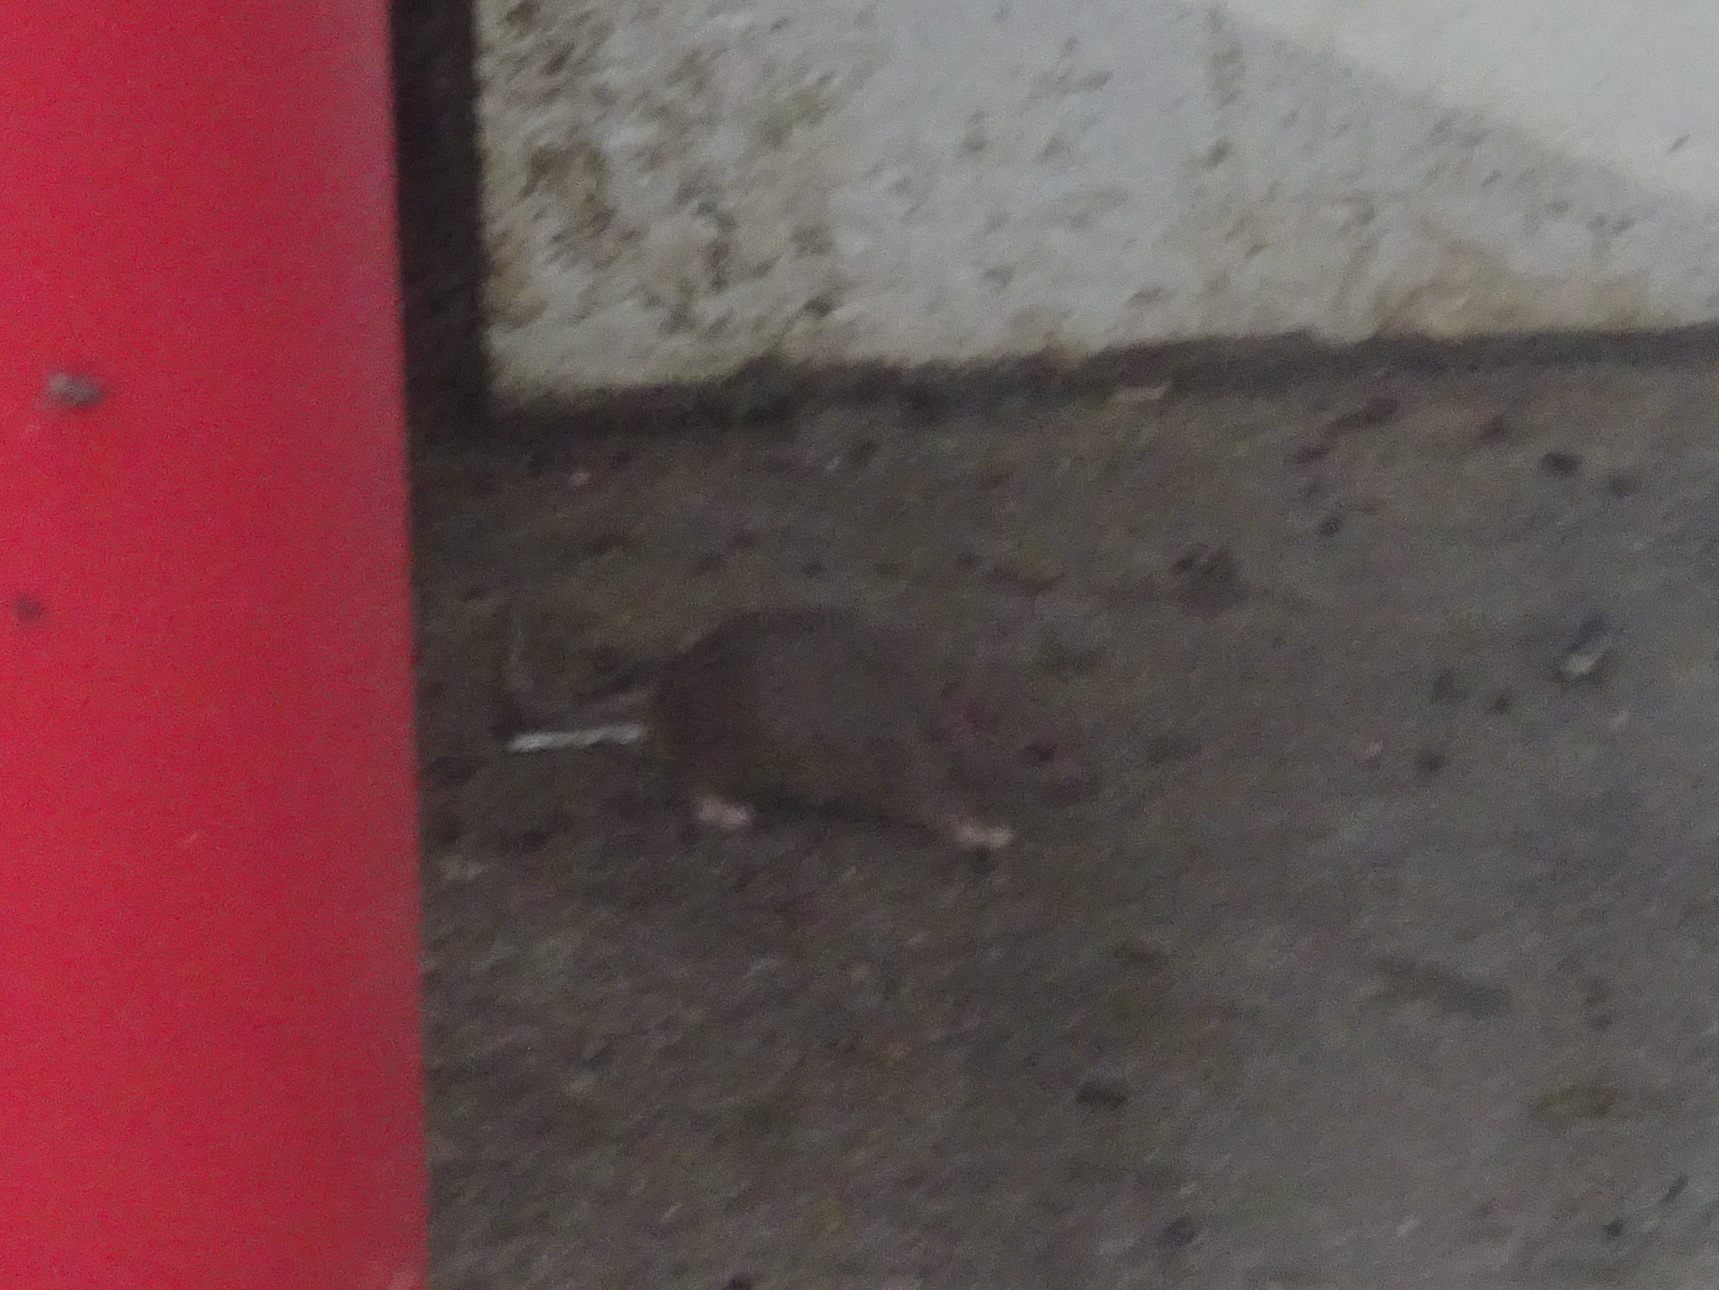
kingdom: Animalia
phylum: Chordata
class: Mammalia
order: Rodentia
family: Muridae
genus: Mus
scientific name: Mus musculus
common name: House mouse
